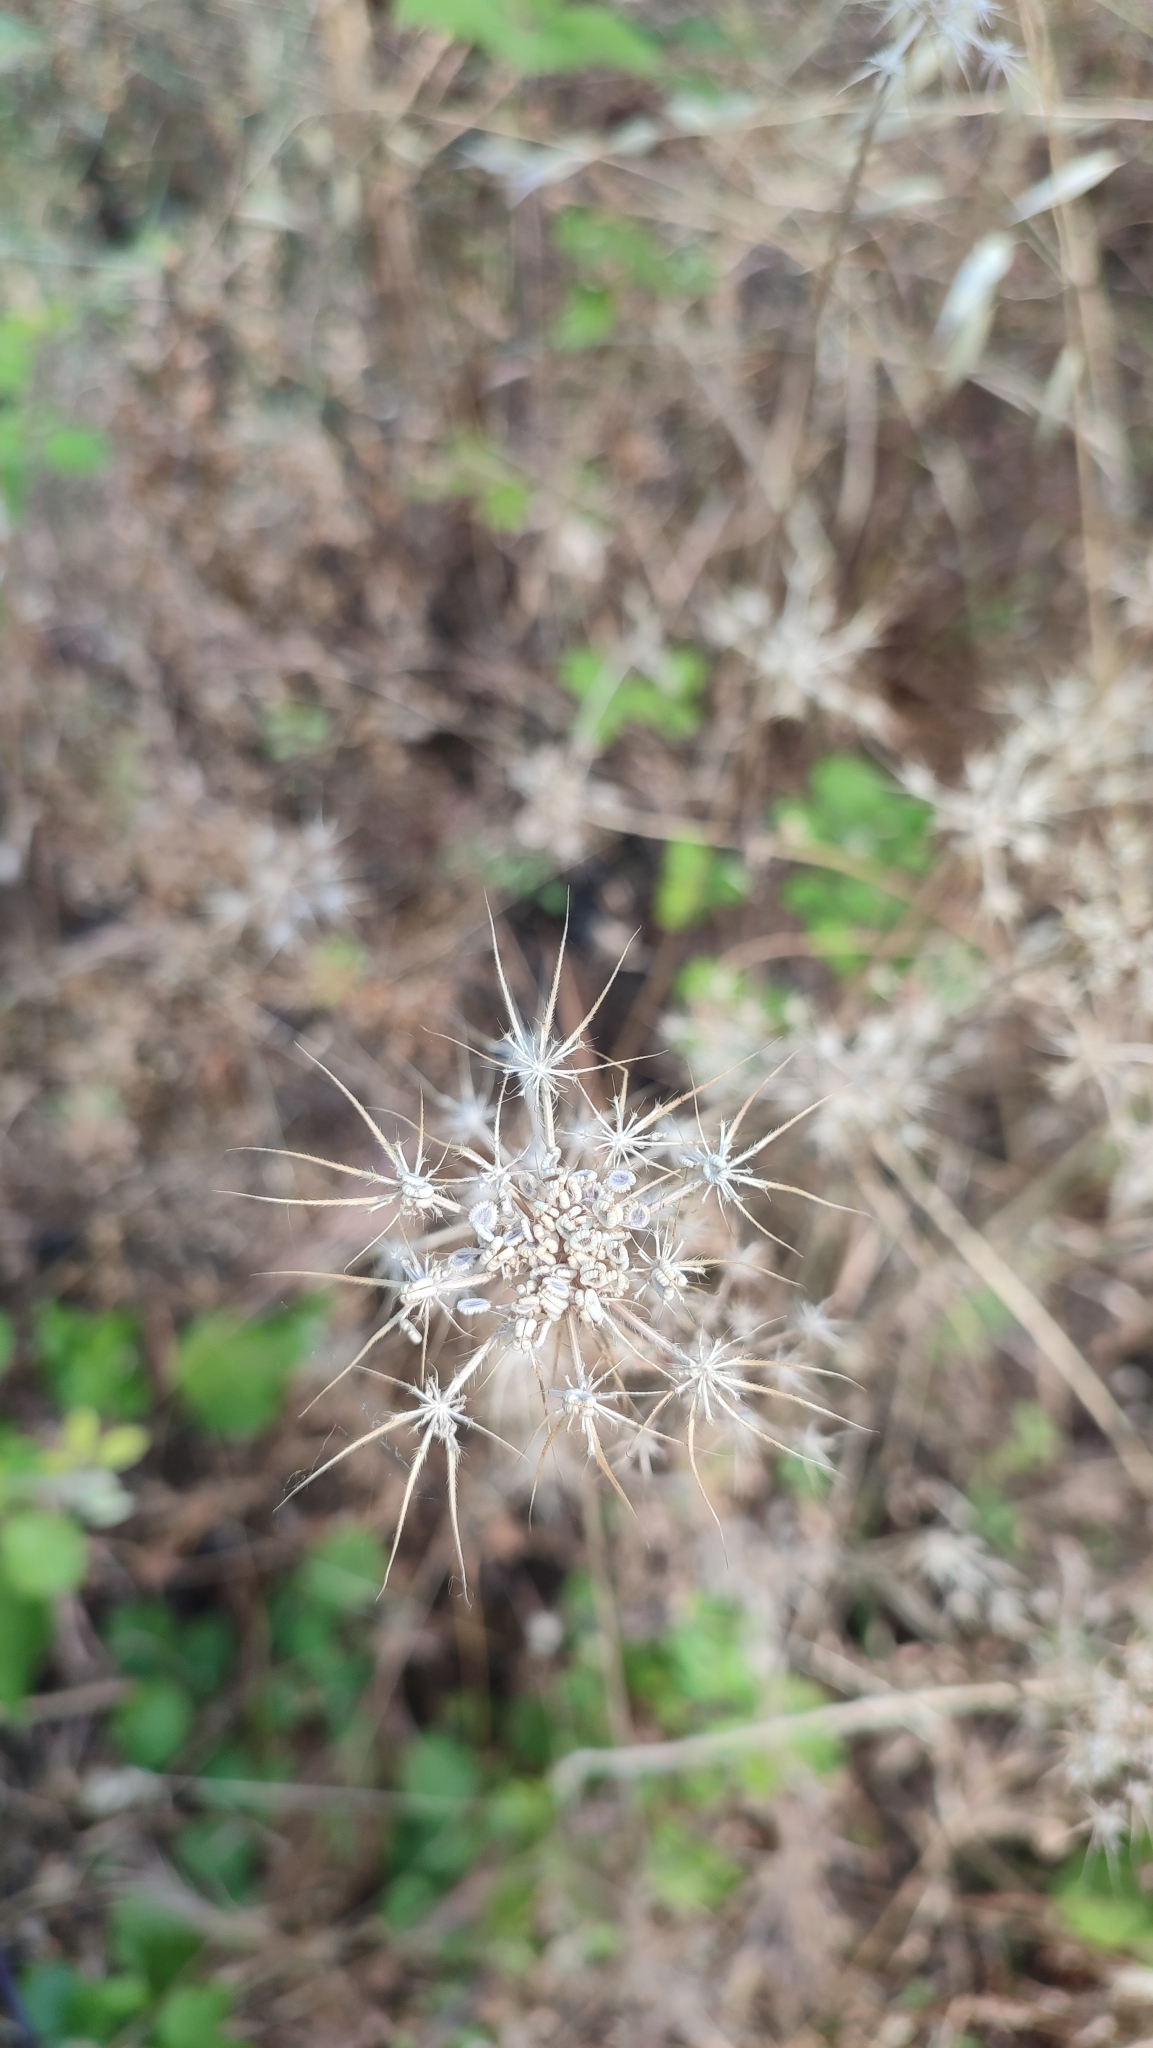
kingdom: Plantae
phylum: Tracheophyta
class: Magnoliopsida
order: Apiales
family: Apiaceae
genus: Tordylium
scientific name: Tordylium apulum
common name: Mediterranean hartwort
